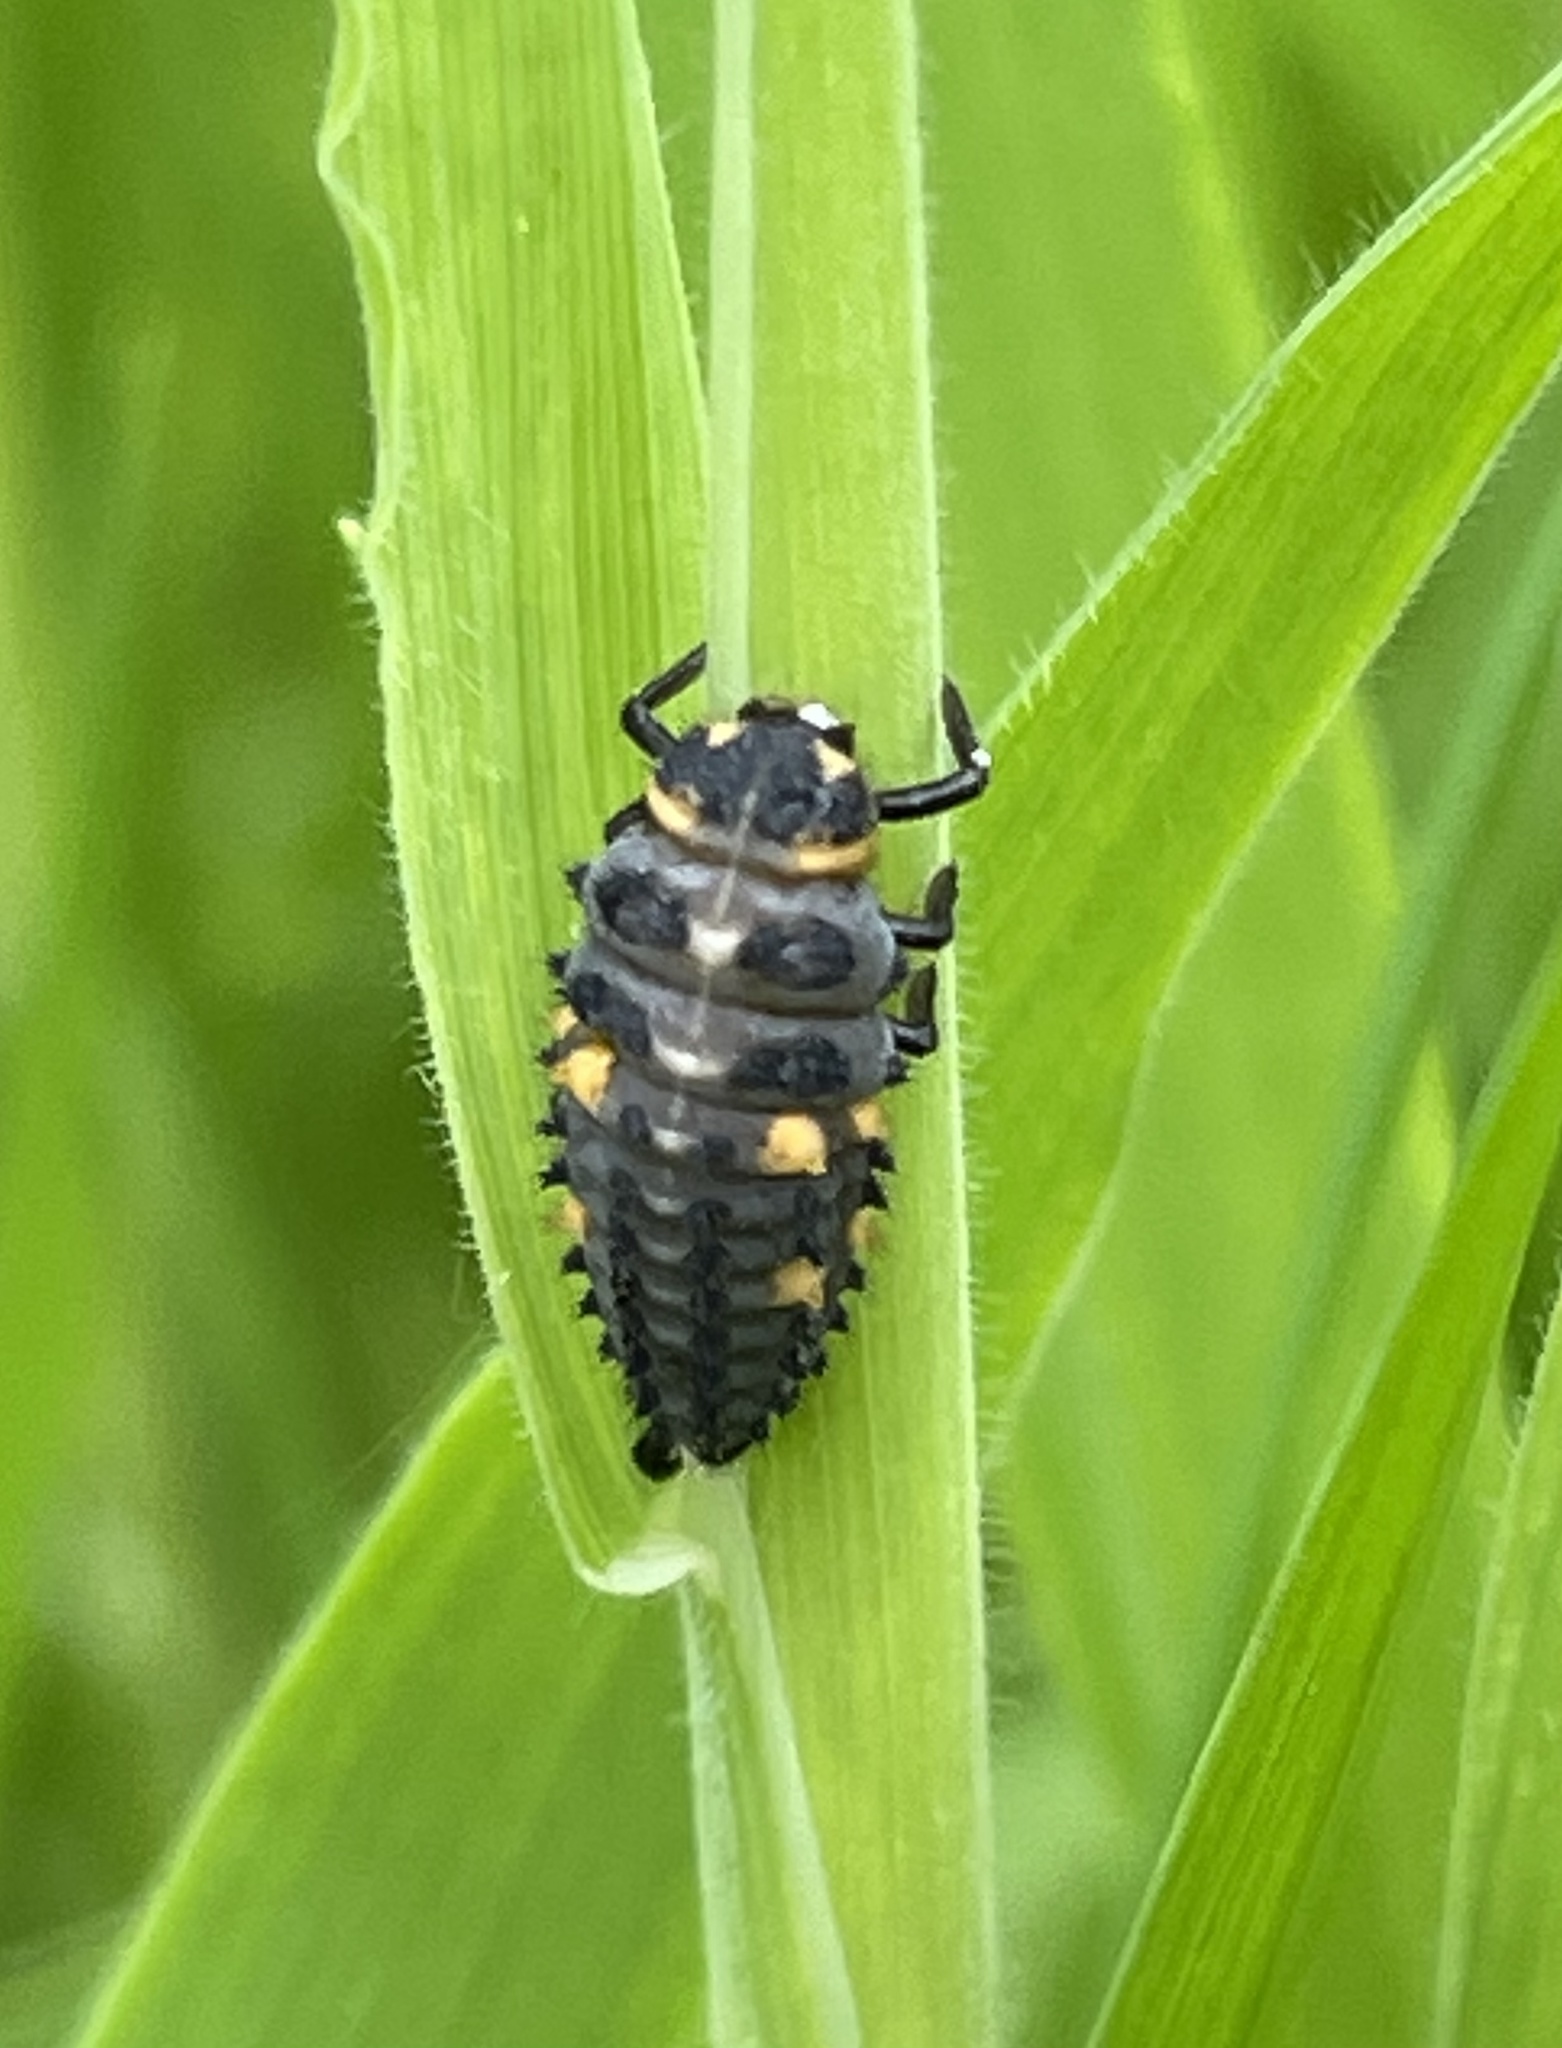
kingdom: Animalia
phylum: Arthropoda
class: Insecta
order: Coleoptera
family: Coccinellidae
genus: Coccinella
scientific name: Coccinella septempunctata
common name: Sevenspotted lady beetle
